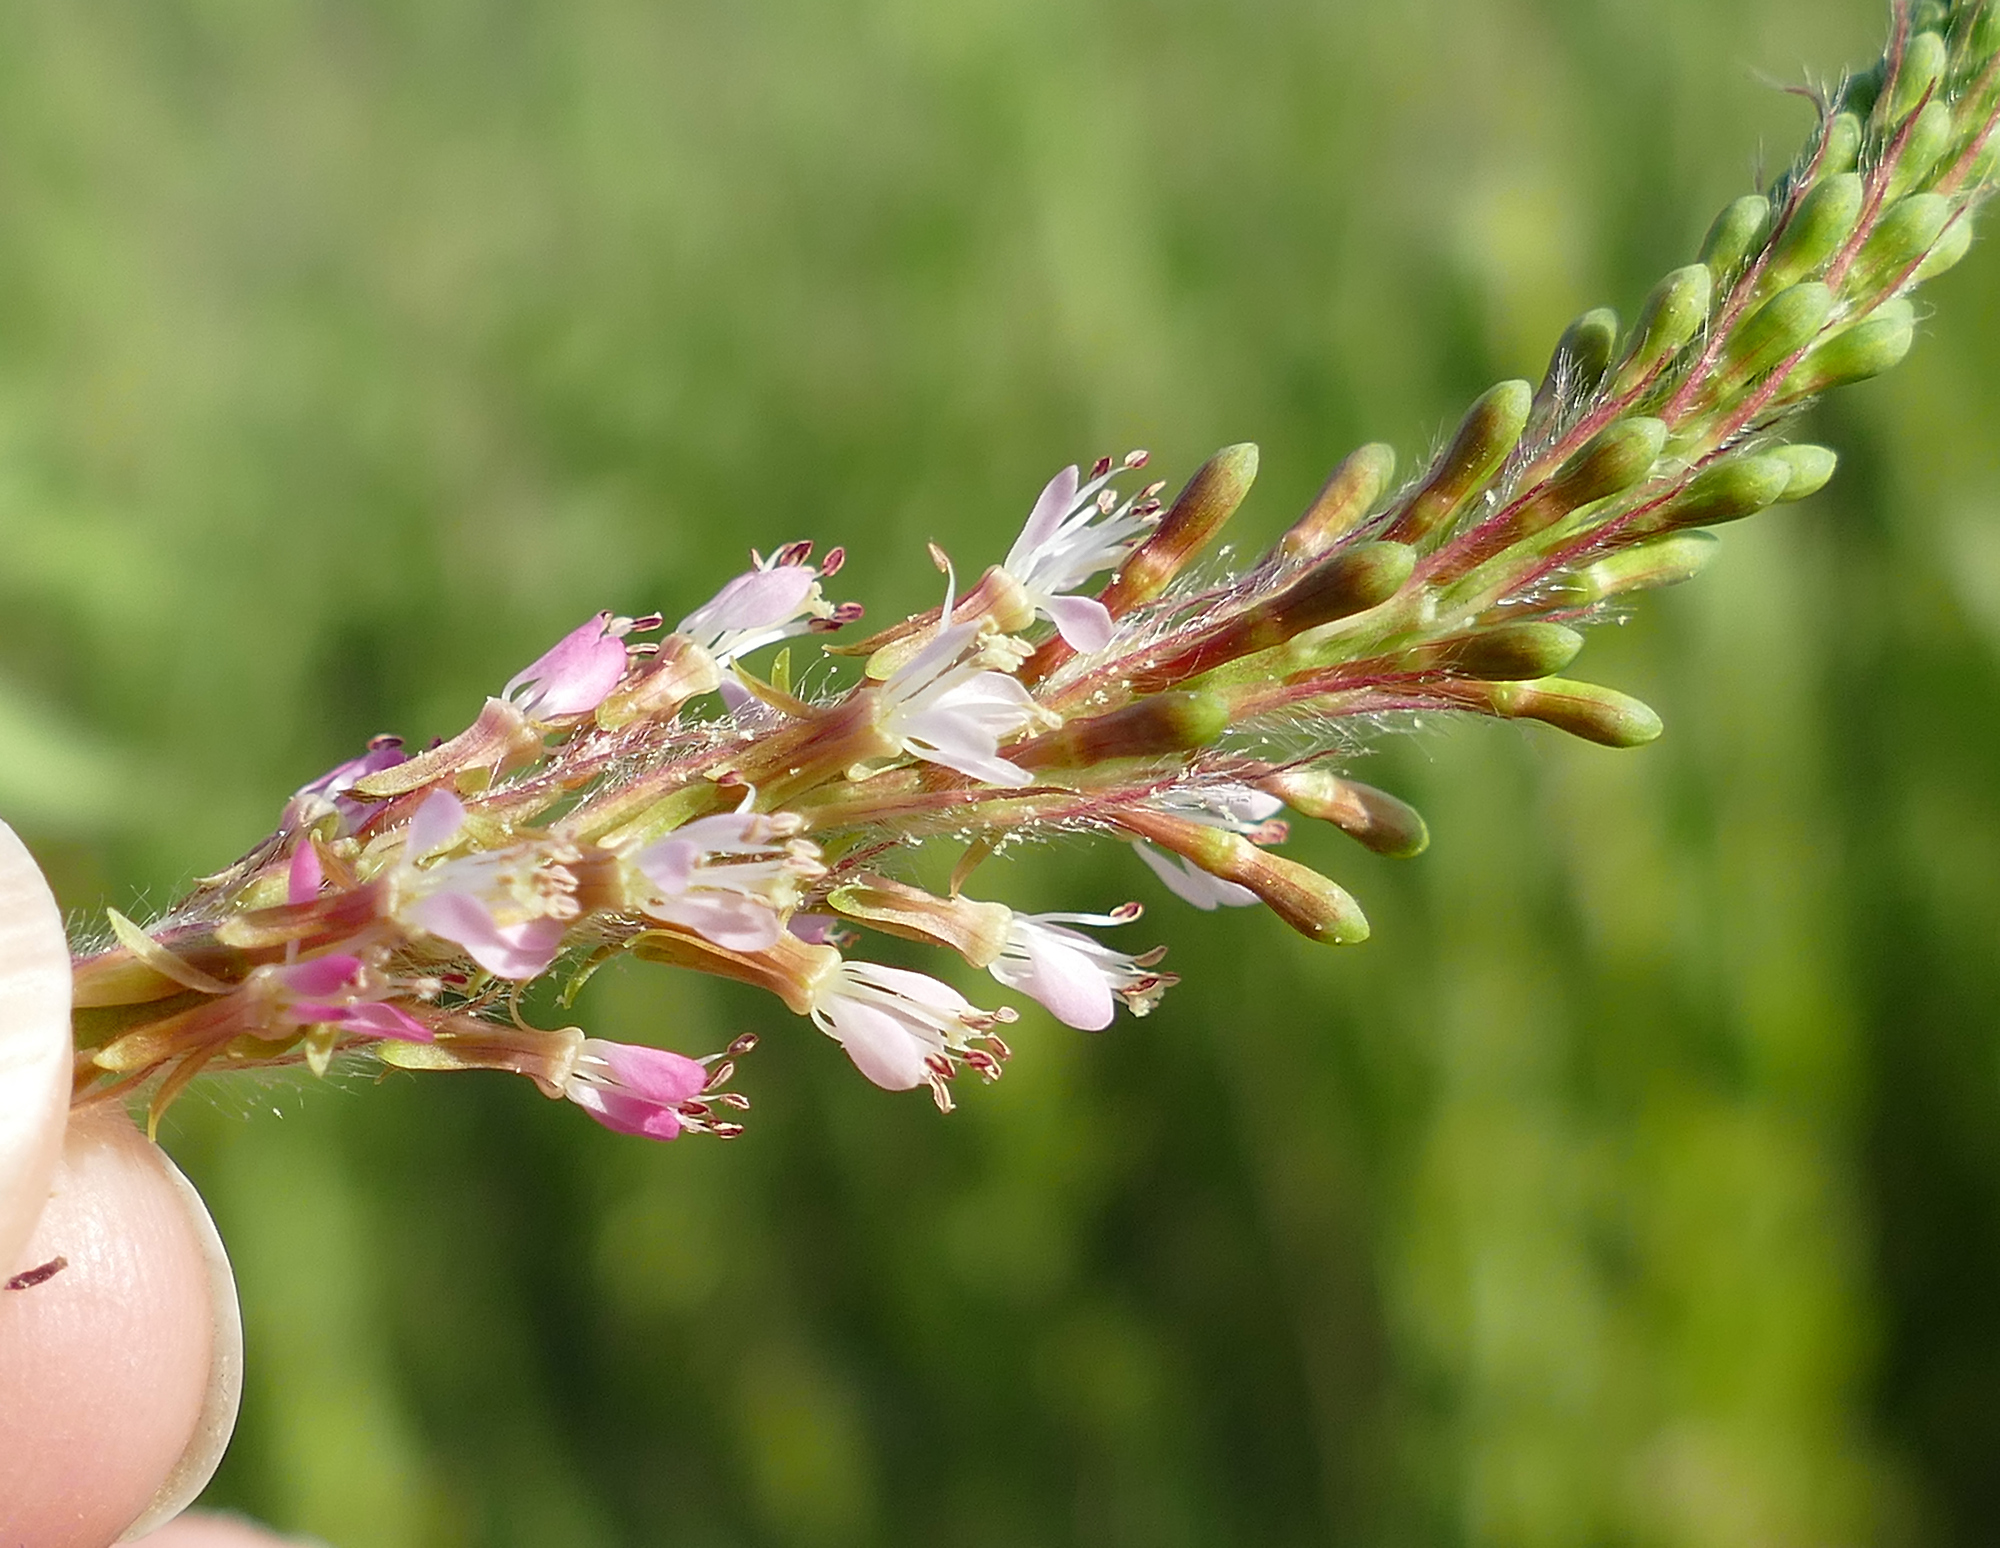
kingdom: Plantae
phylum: Tracheophyta
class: Magnoliopsida
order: Myrtales
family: Onagraceae
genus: Oenothera
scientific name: Oenothera curtiflora
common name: Velvetweed
